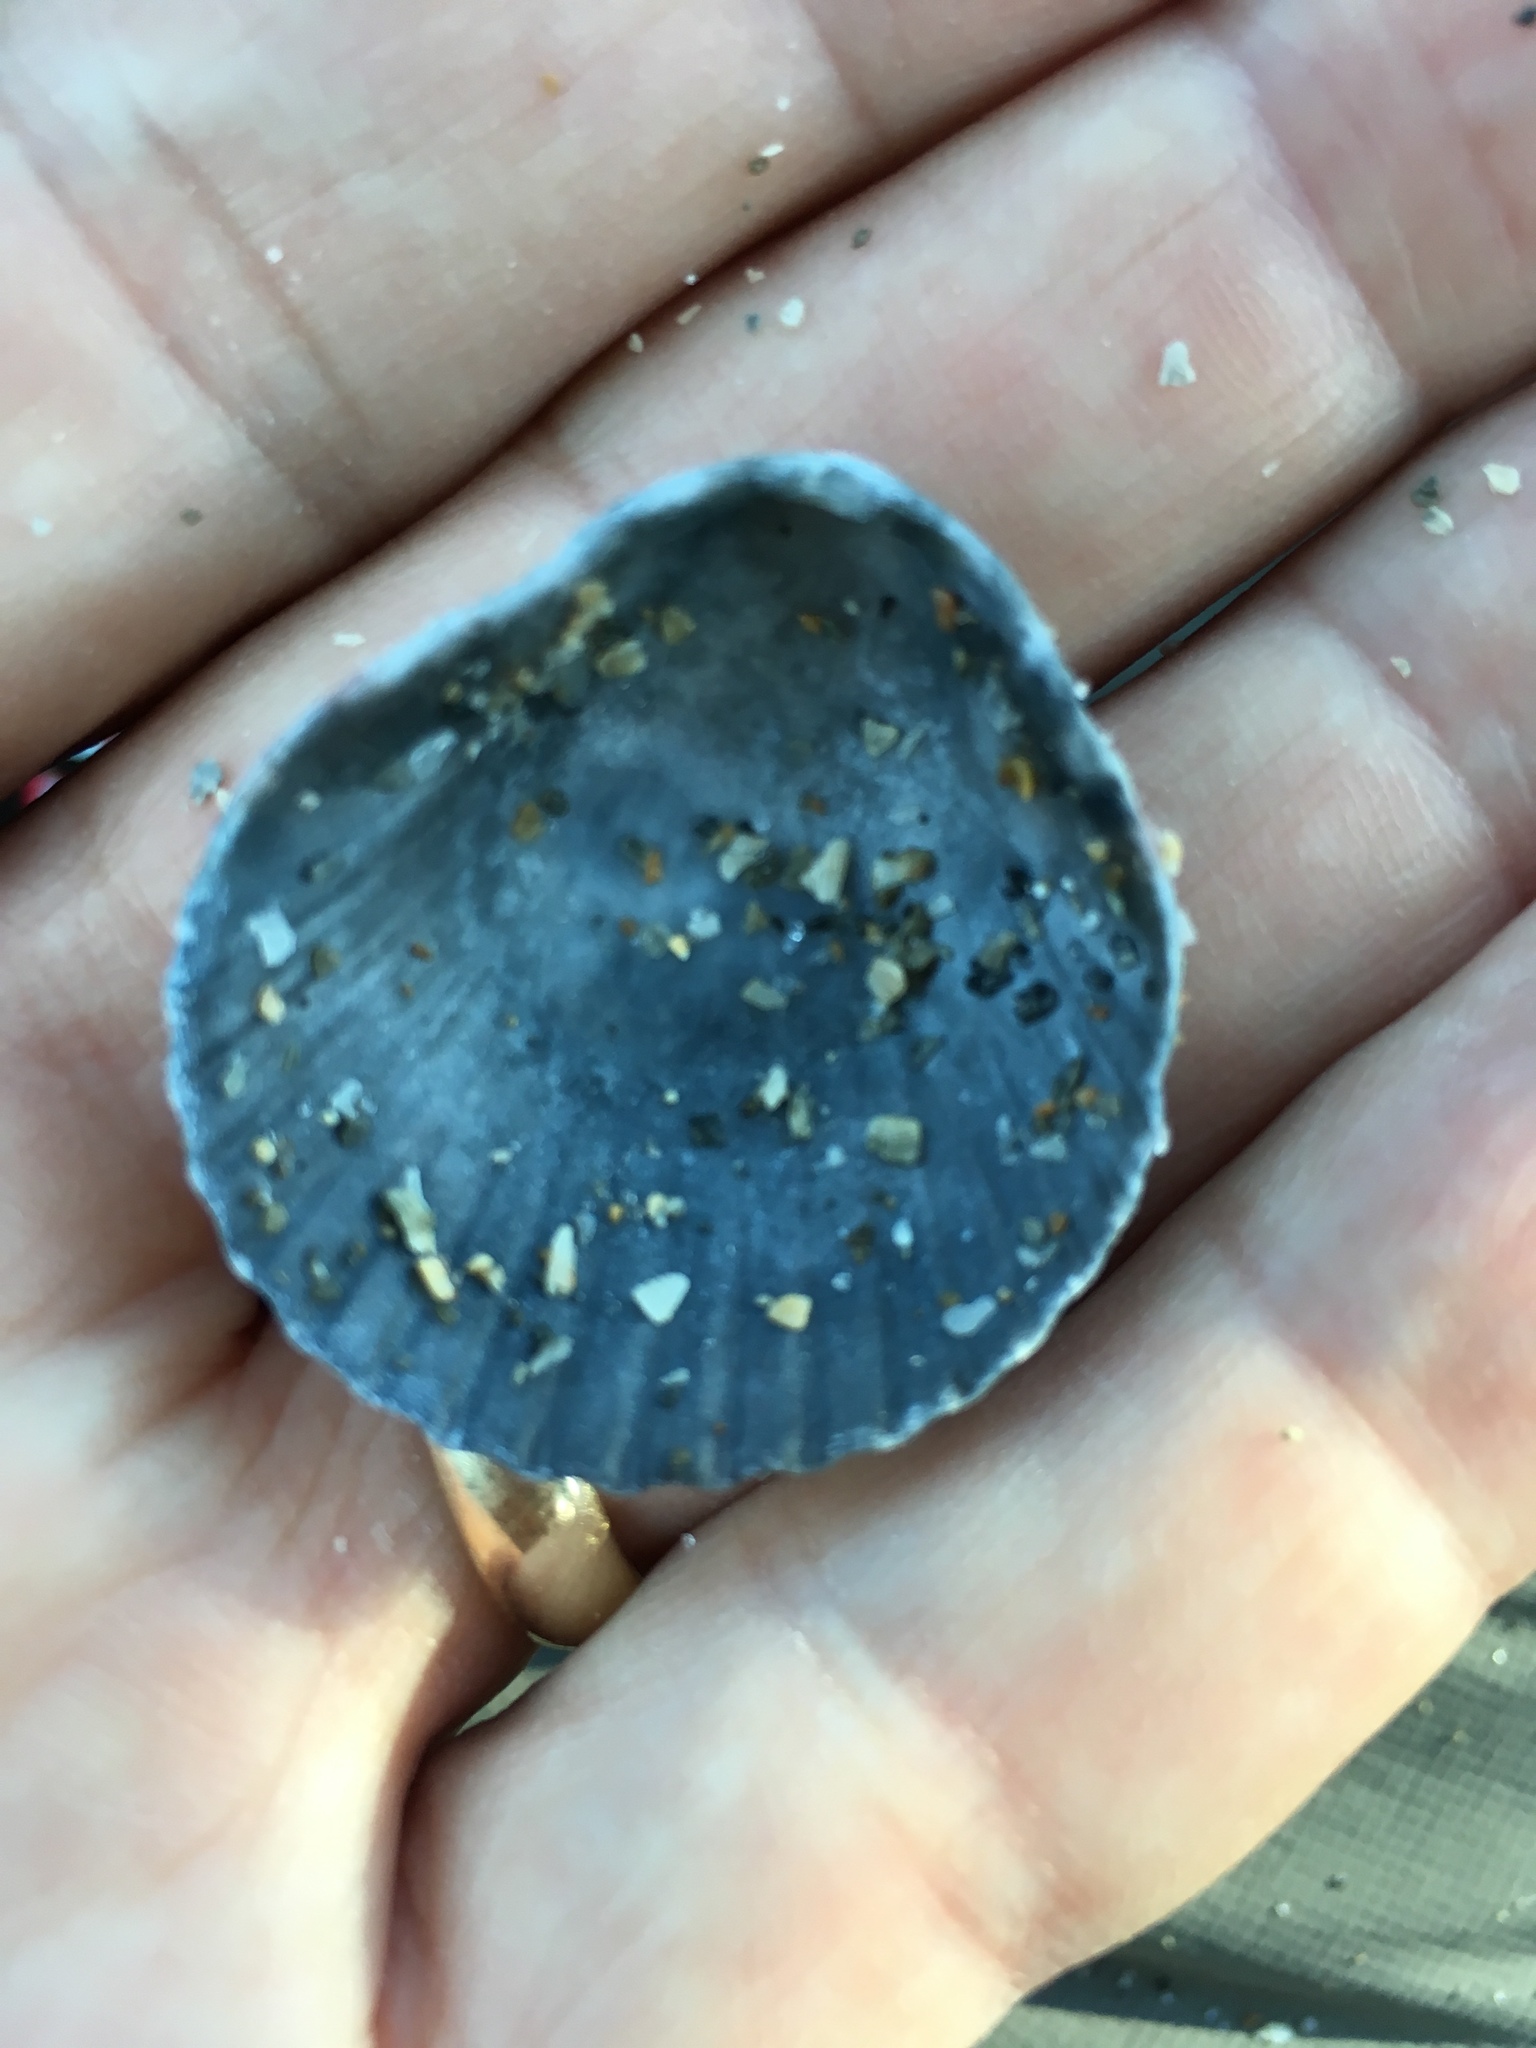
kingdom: Animalia
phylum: Mollusca
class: Bivalvia
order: Pectinida
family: Pectinidae
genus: Argopecten
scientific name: Argopecten gibbus
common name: Atlantic calico scallop
